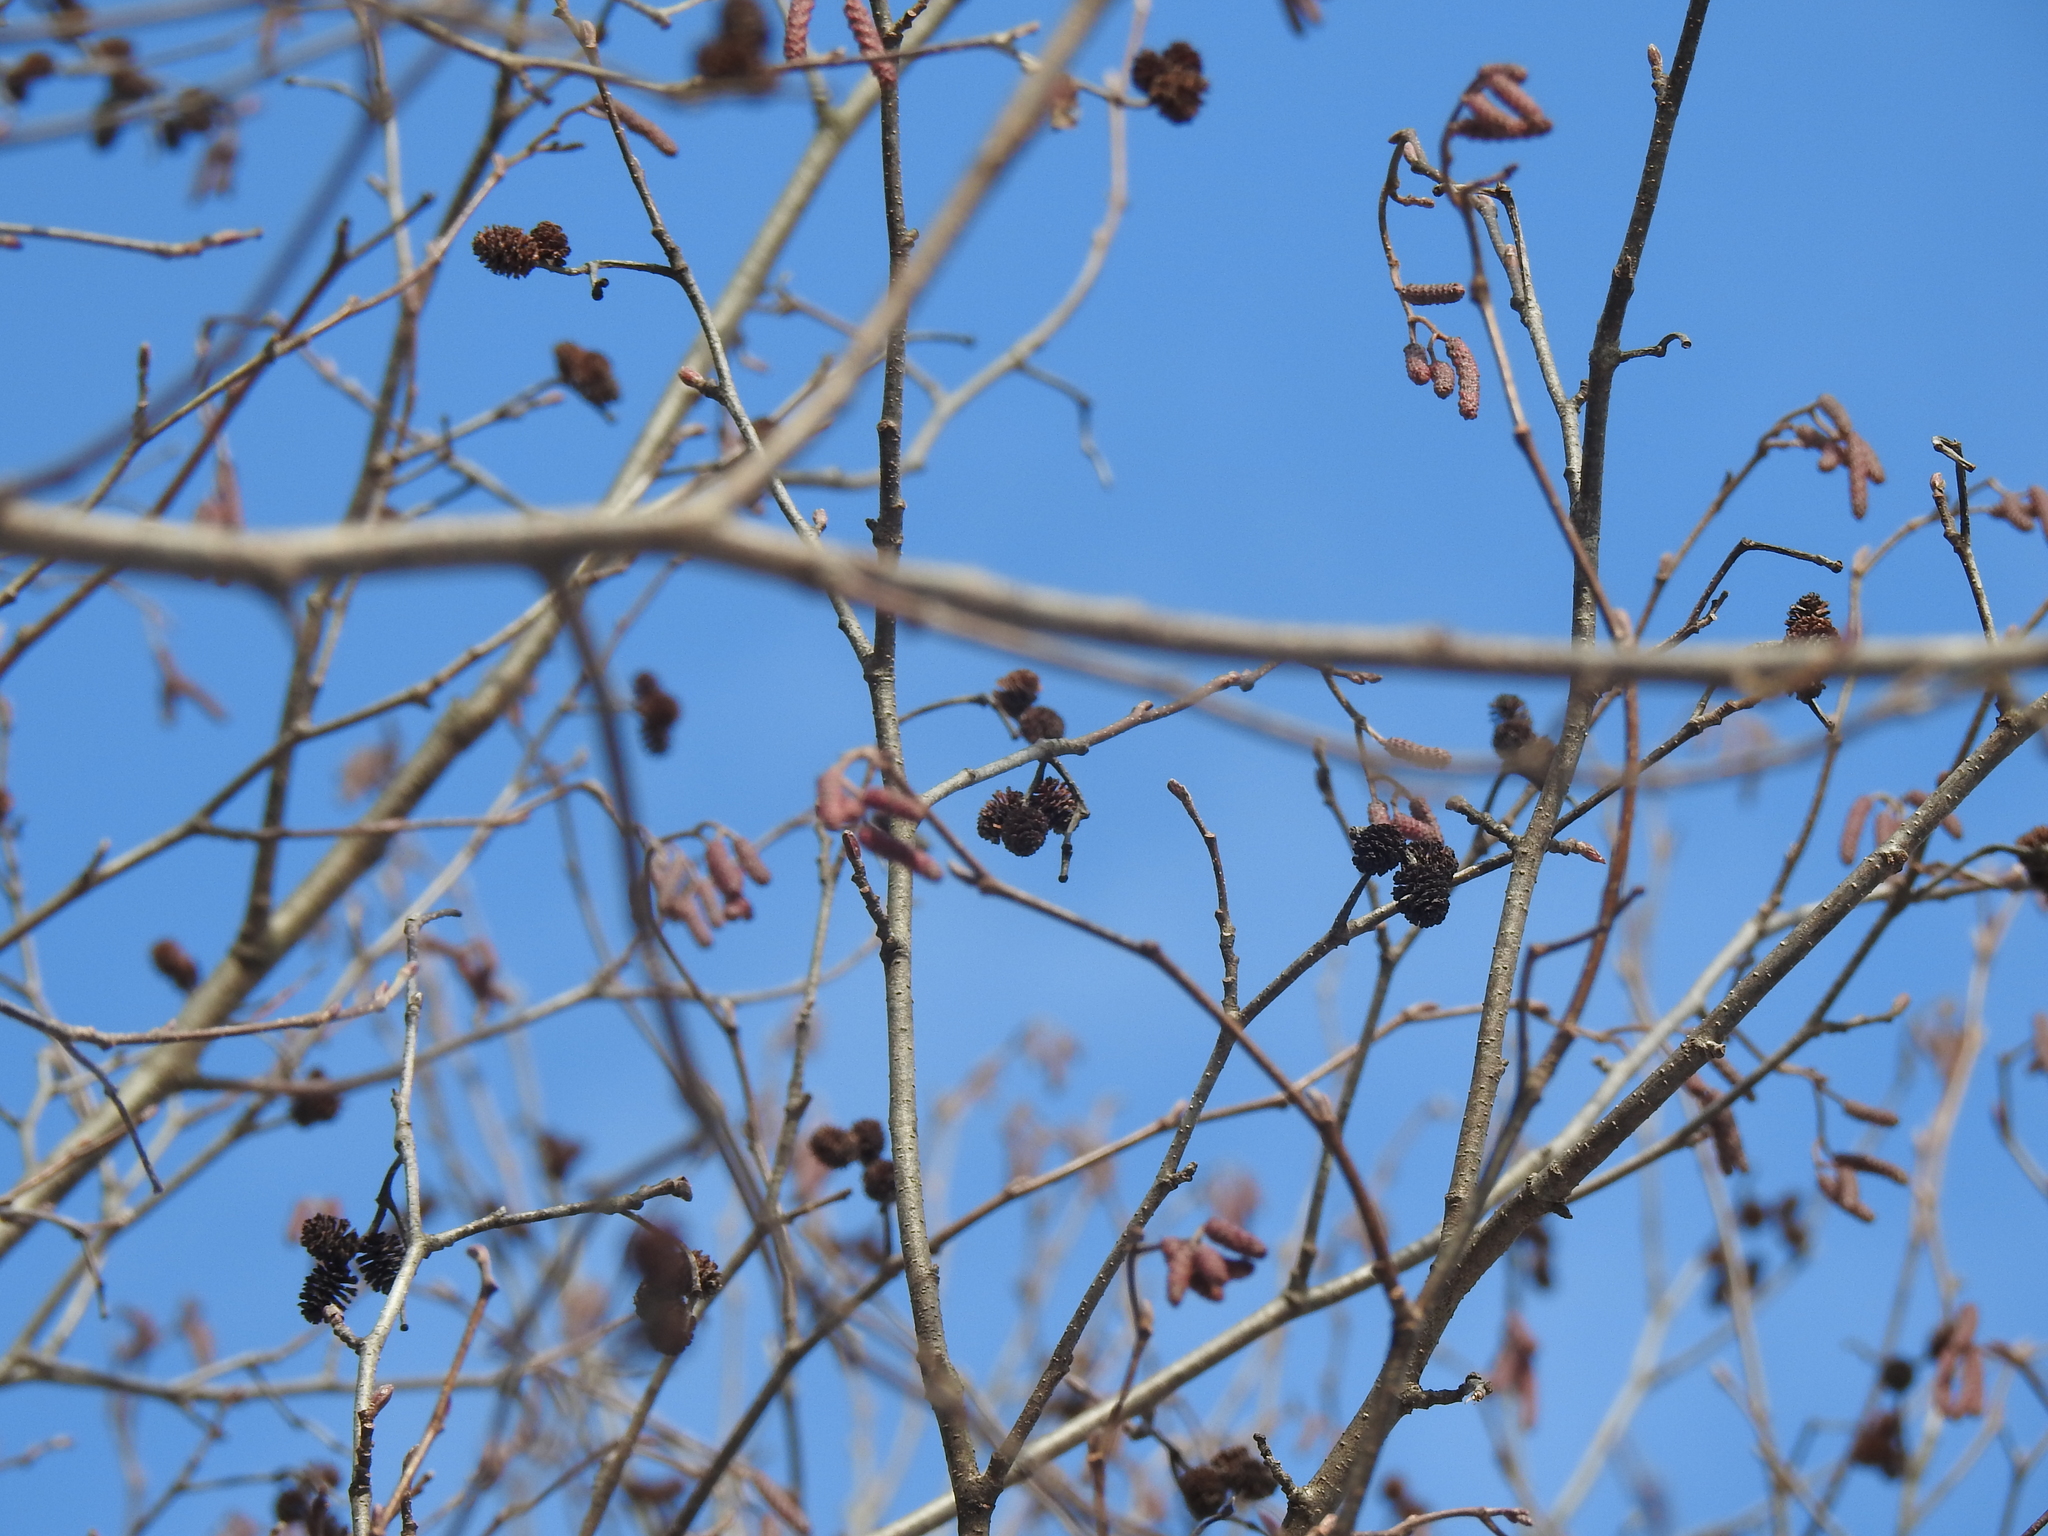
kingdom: Plantae
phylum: Tracheophyta
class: Magnoliopsida
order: Fagales
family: Betulaceae
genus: Alnus
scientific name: Alnus incana
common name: Grey alder
